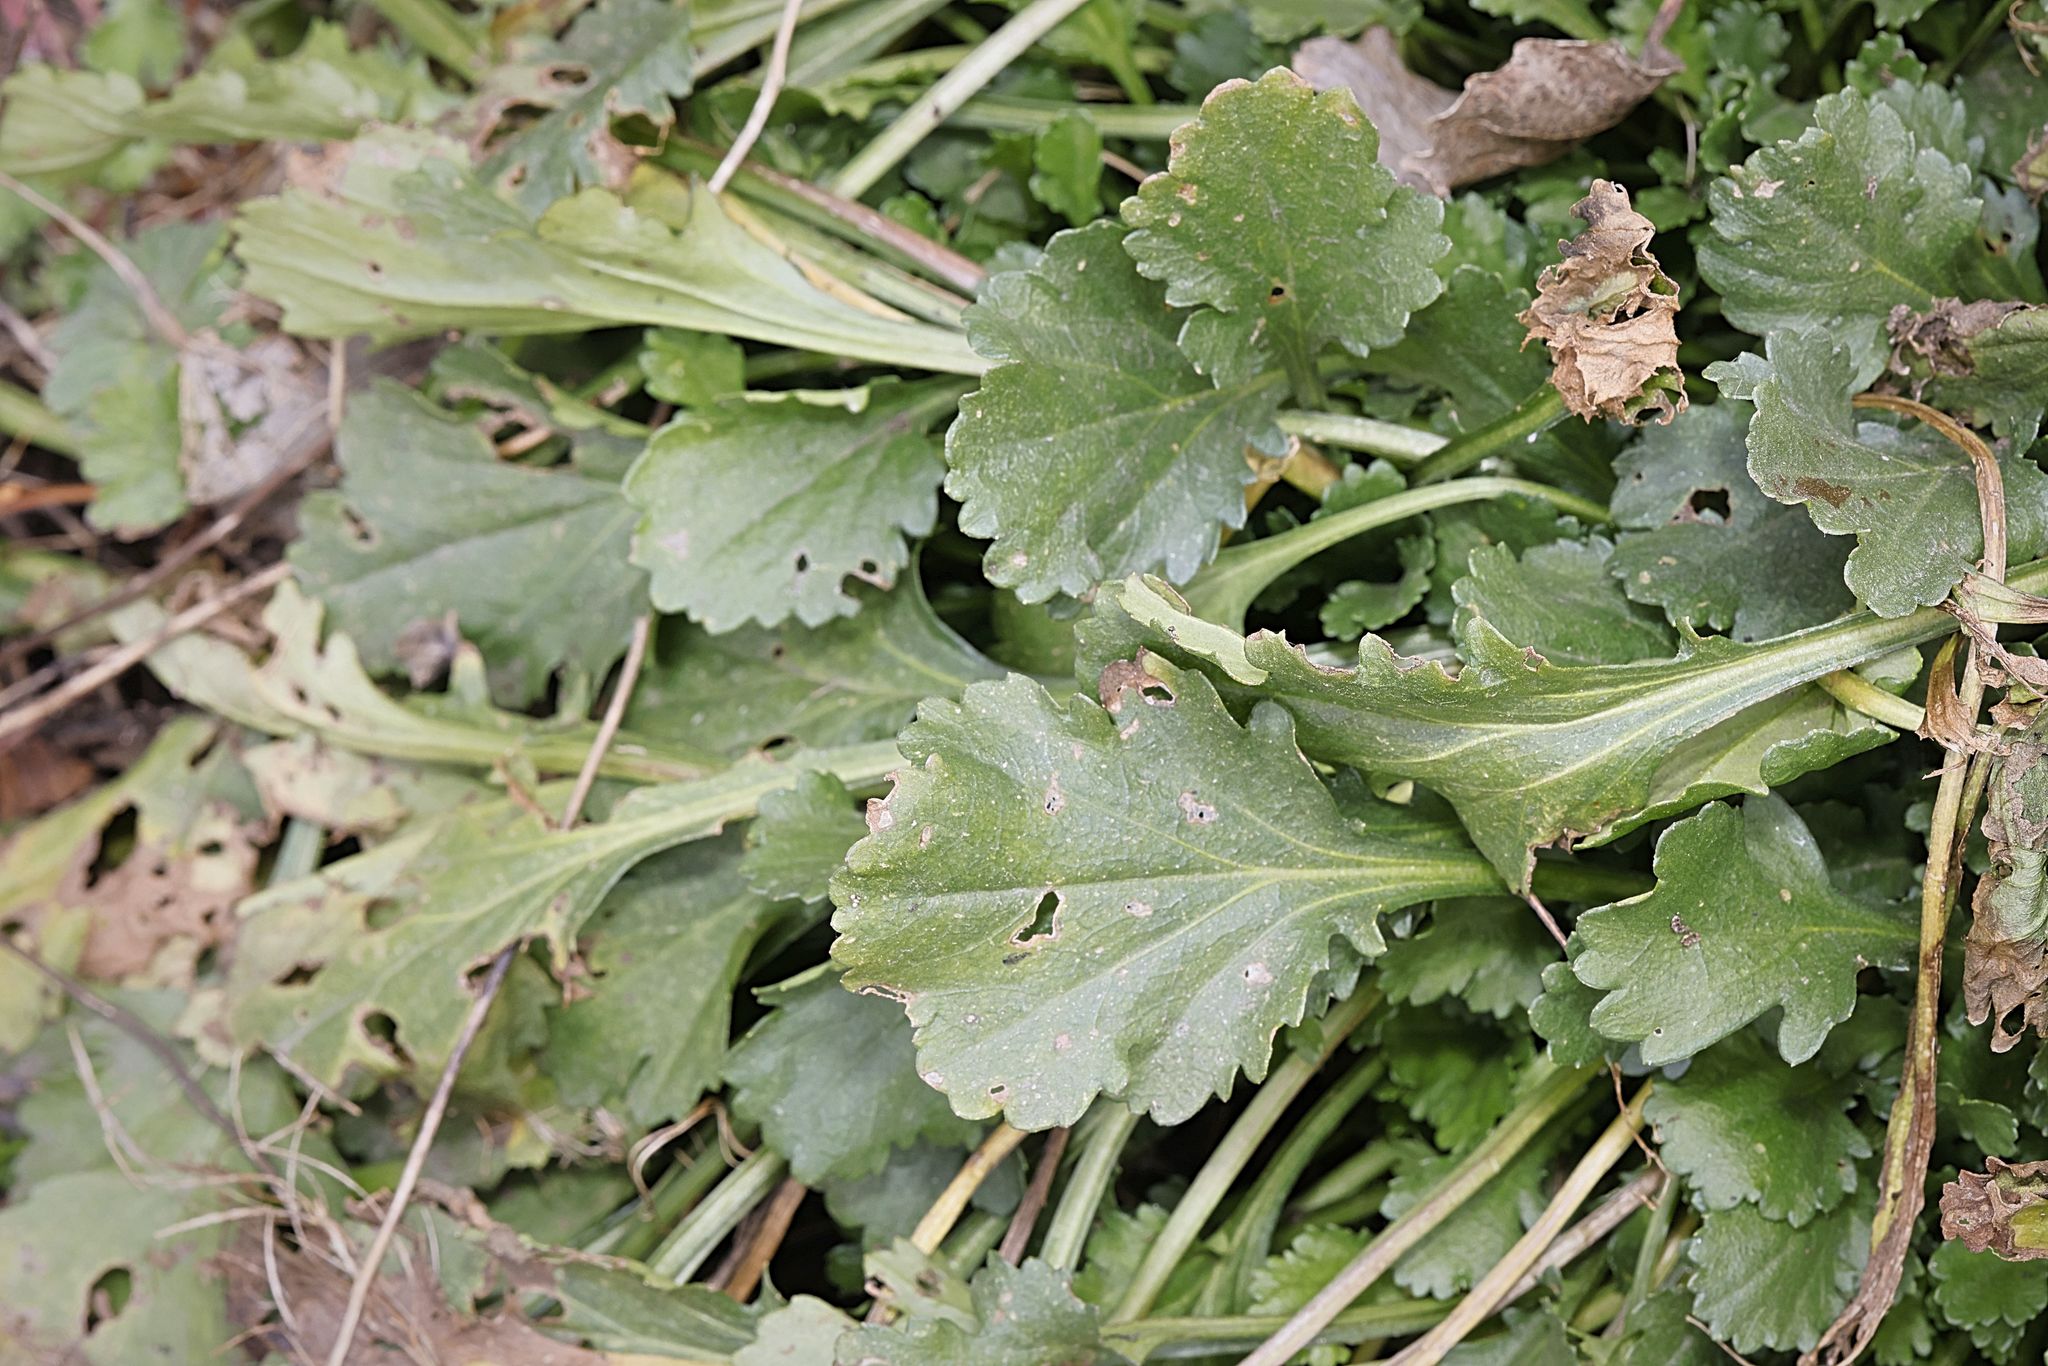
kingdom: Plantae
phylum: Tracheophyta
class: Magnoliopsida
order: Asterales
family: Asteraceae
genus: Leucanthemum
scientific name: Leucanthemum vulgare
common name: Oxeye daisy
